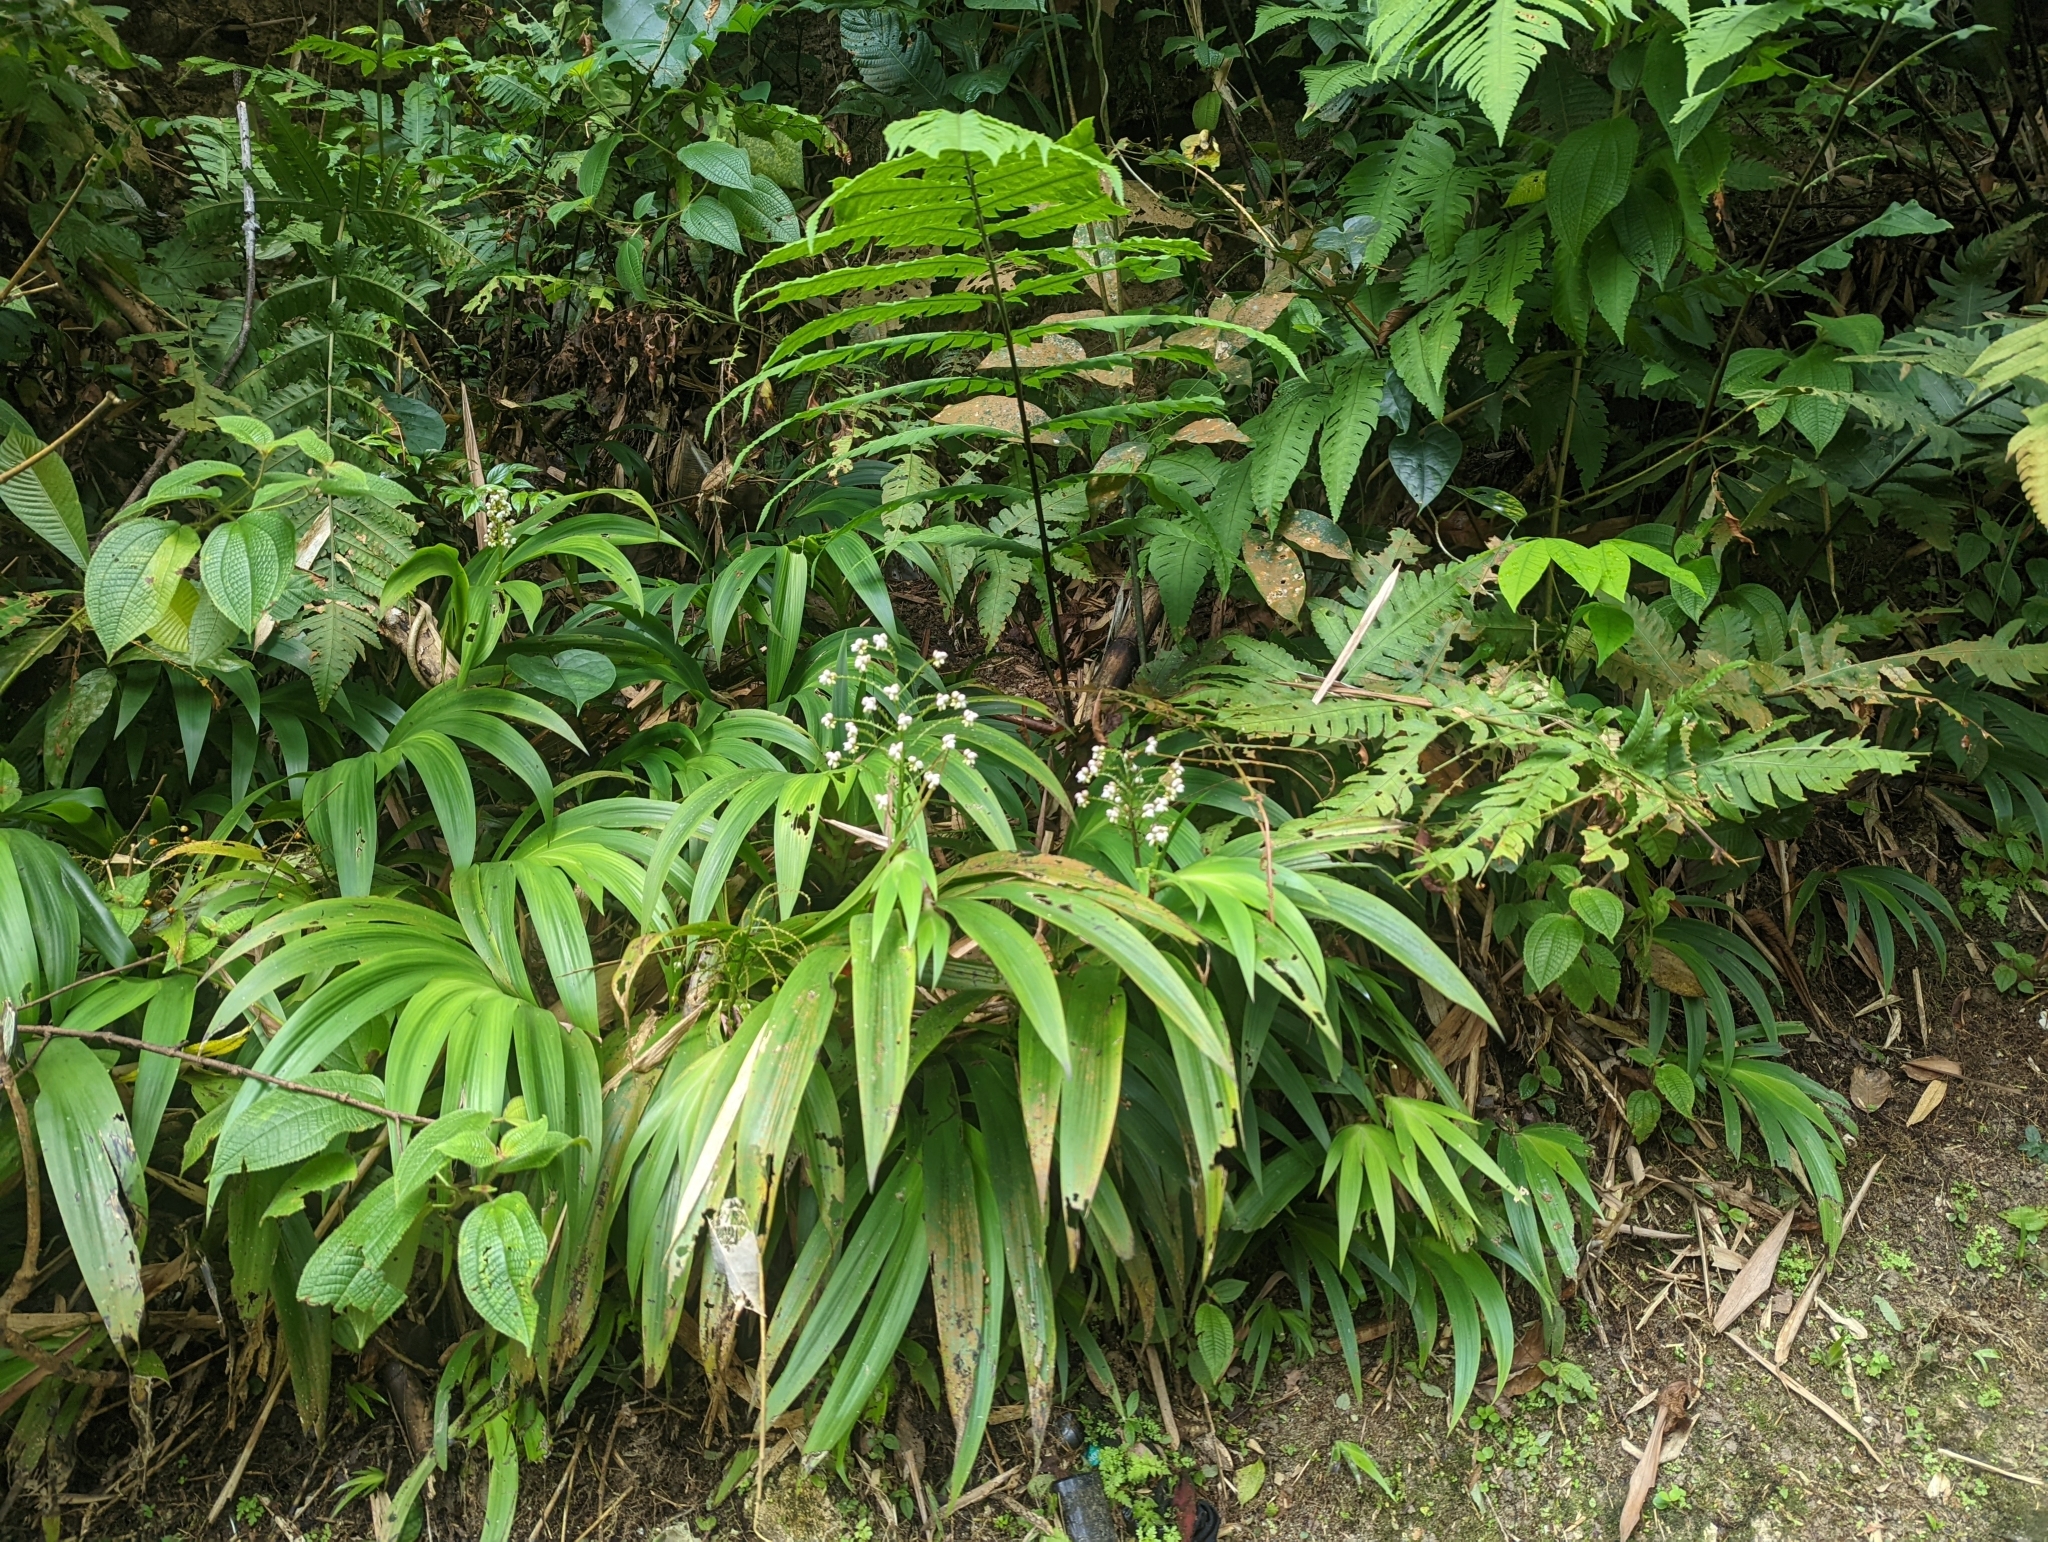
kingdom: Plantae
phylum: Tracheophyta
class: Liliopsida
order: Commelinales
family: Haemodoraceae
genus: Xiphidium
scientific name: Xiphidium caeruleum
